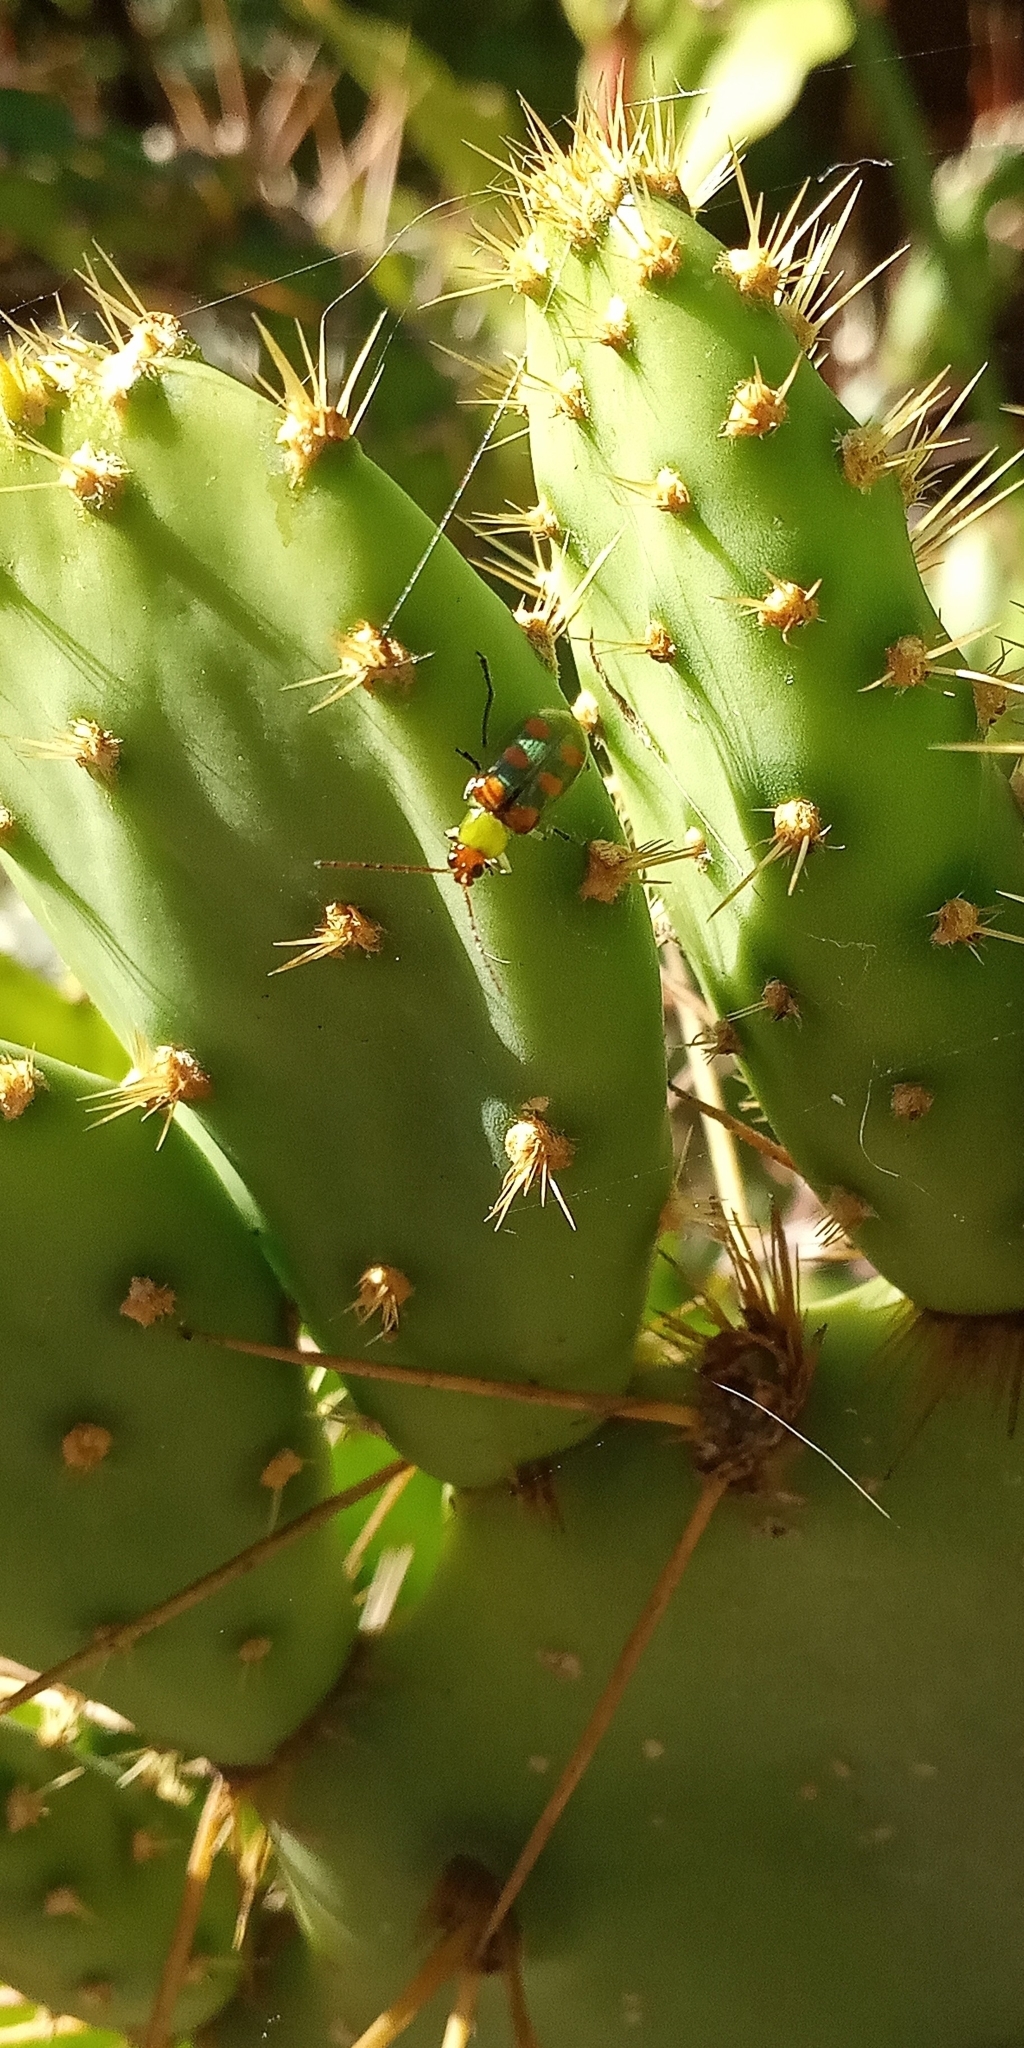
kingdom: Animalia
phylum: Arthropoda
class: Insecta
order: Coleoptera
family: Chrysomelidae
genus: Diabrotica
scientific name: Diabrotica speciosa
